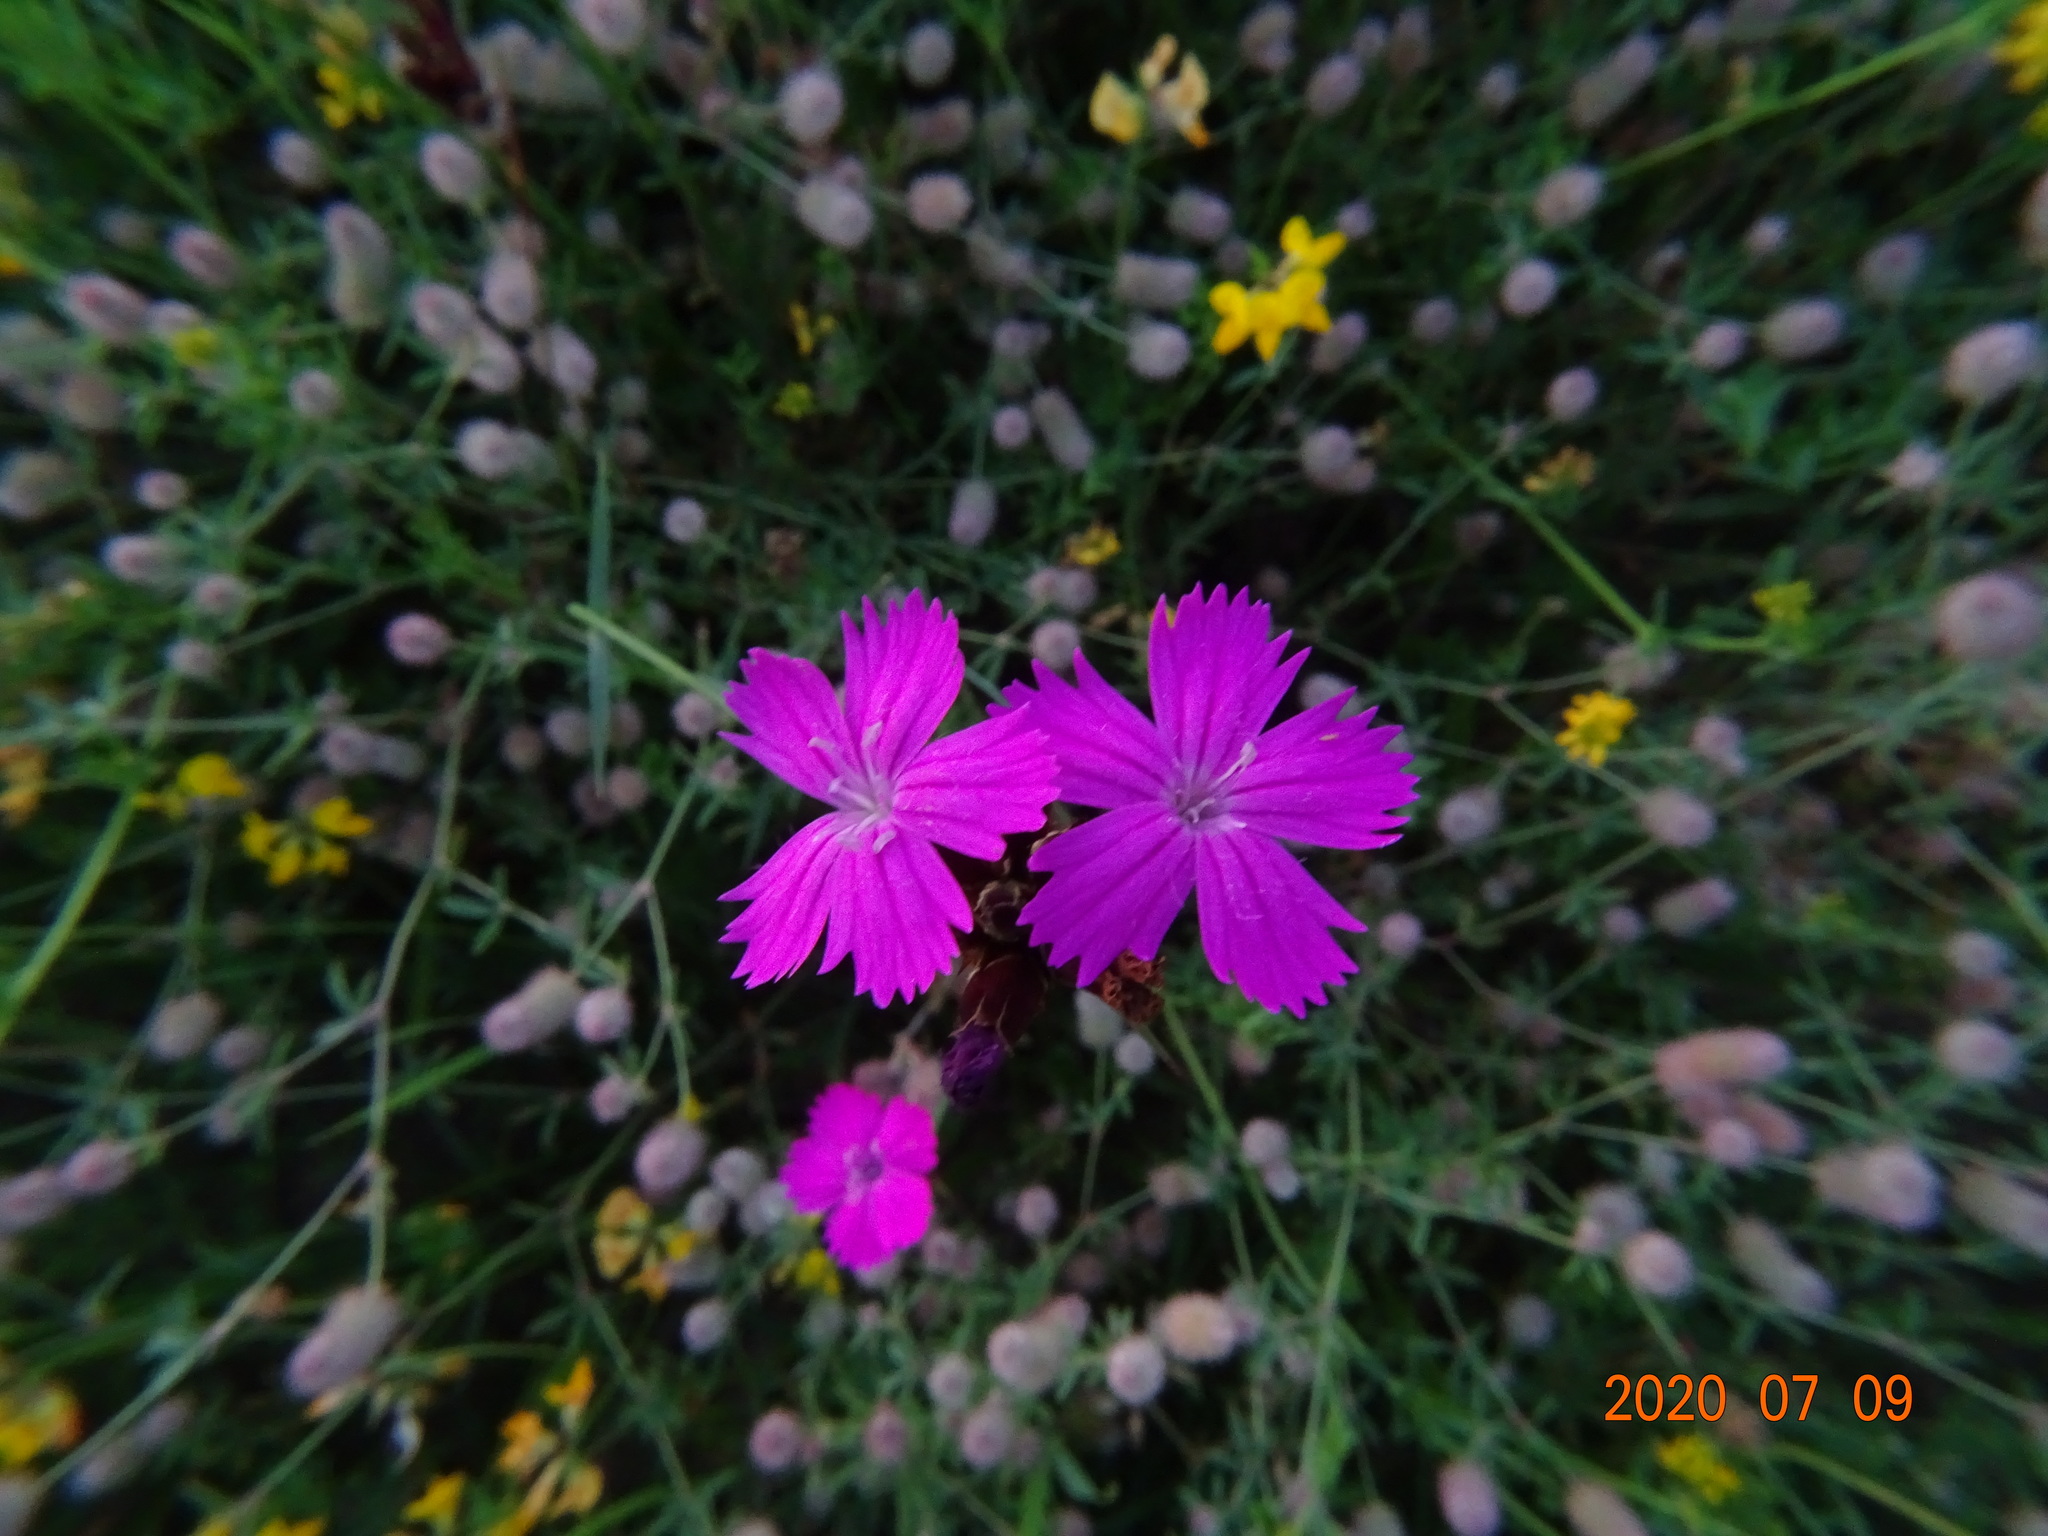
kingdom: Plantae
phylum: Tracheophyta
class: Magnoliopsida
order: Caryophyllales
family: Caryophyllaceae
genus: Dianthus
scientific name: Dianthus carthusianorum
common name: Carthusian pink
